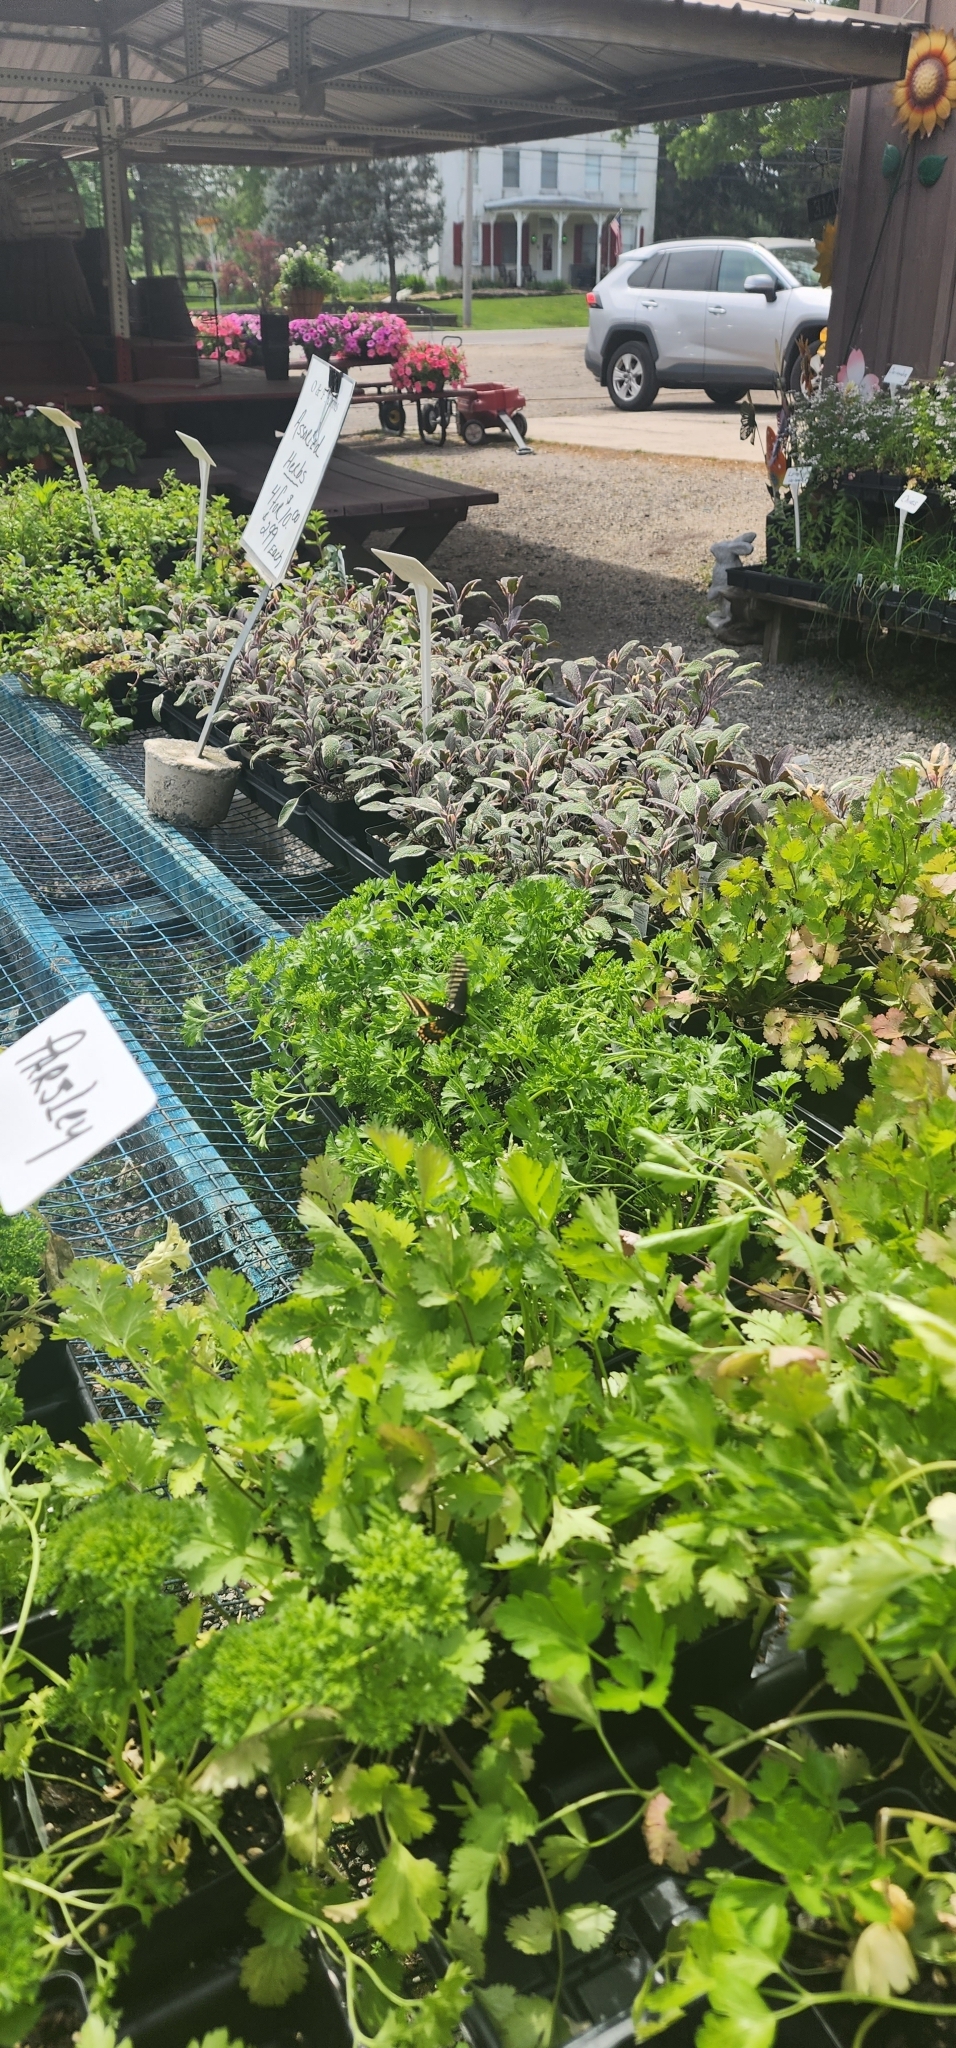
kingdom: Animalia
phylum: Arthropoda
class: Insecta
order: Lepidoptera
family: Papilionidae
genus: Papilio
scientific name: Papilio polyxenes
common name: Black swallowtail
